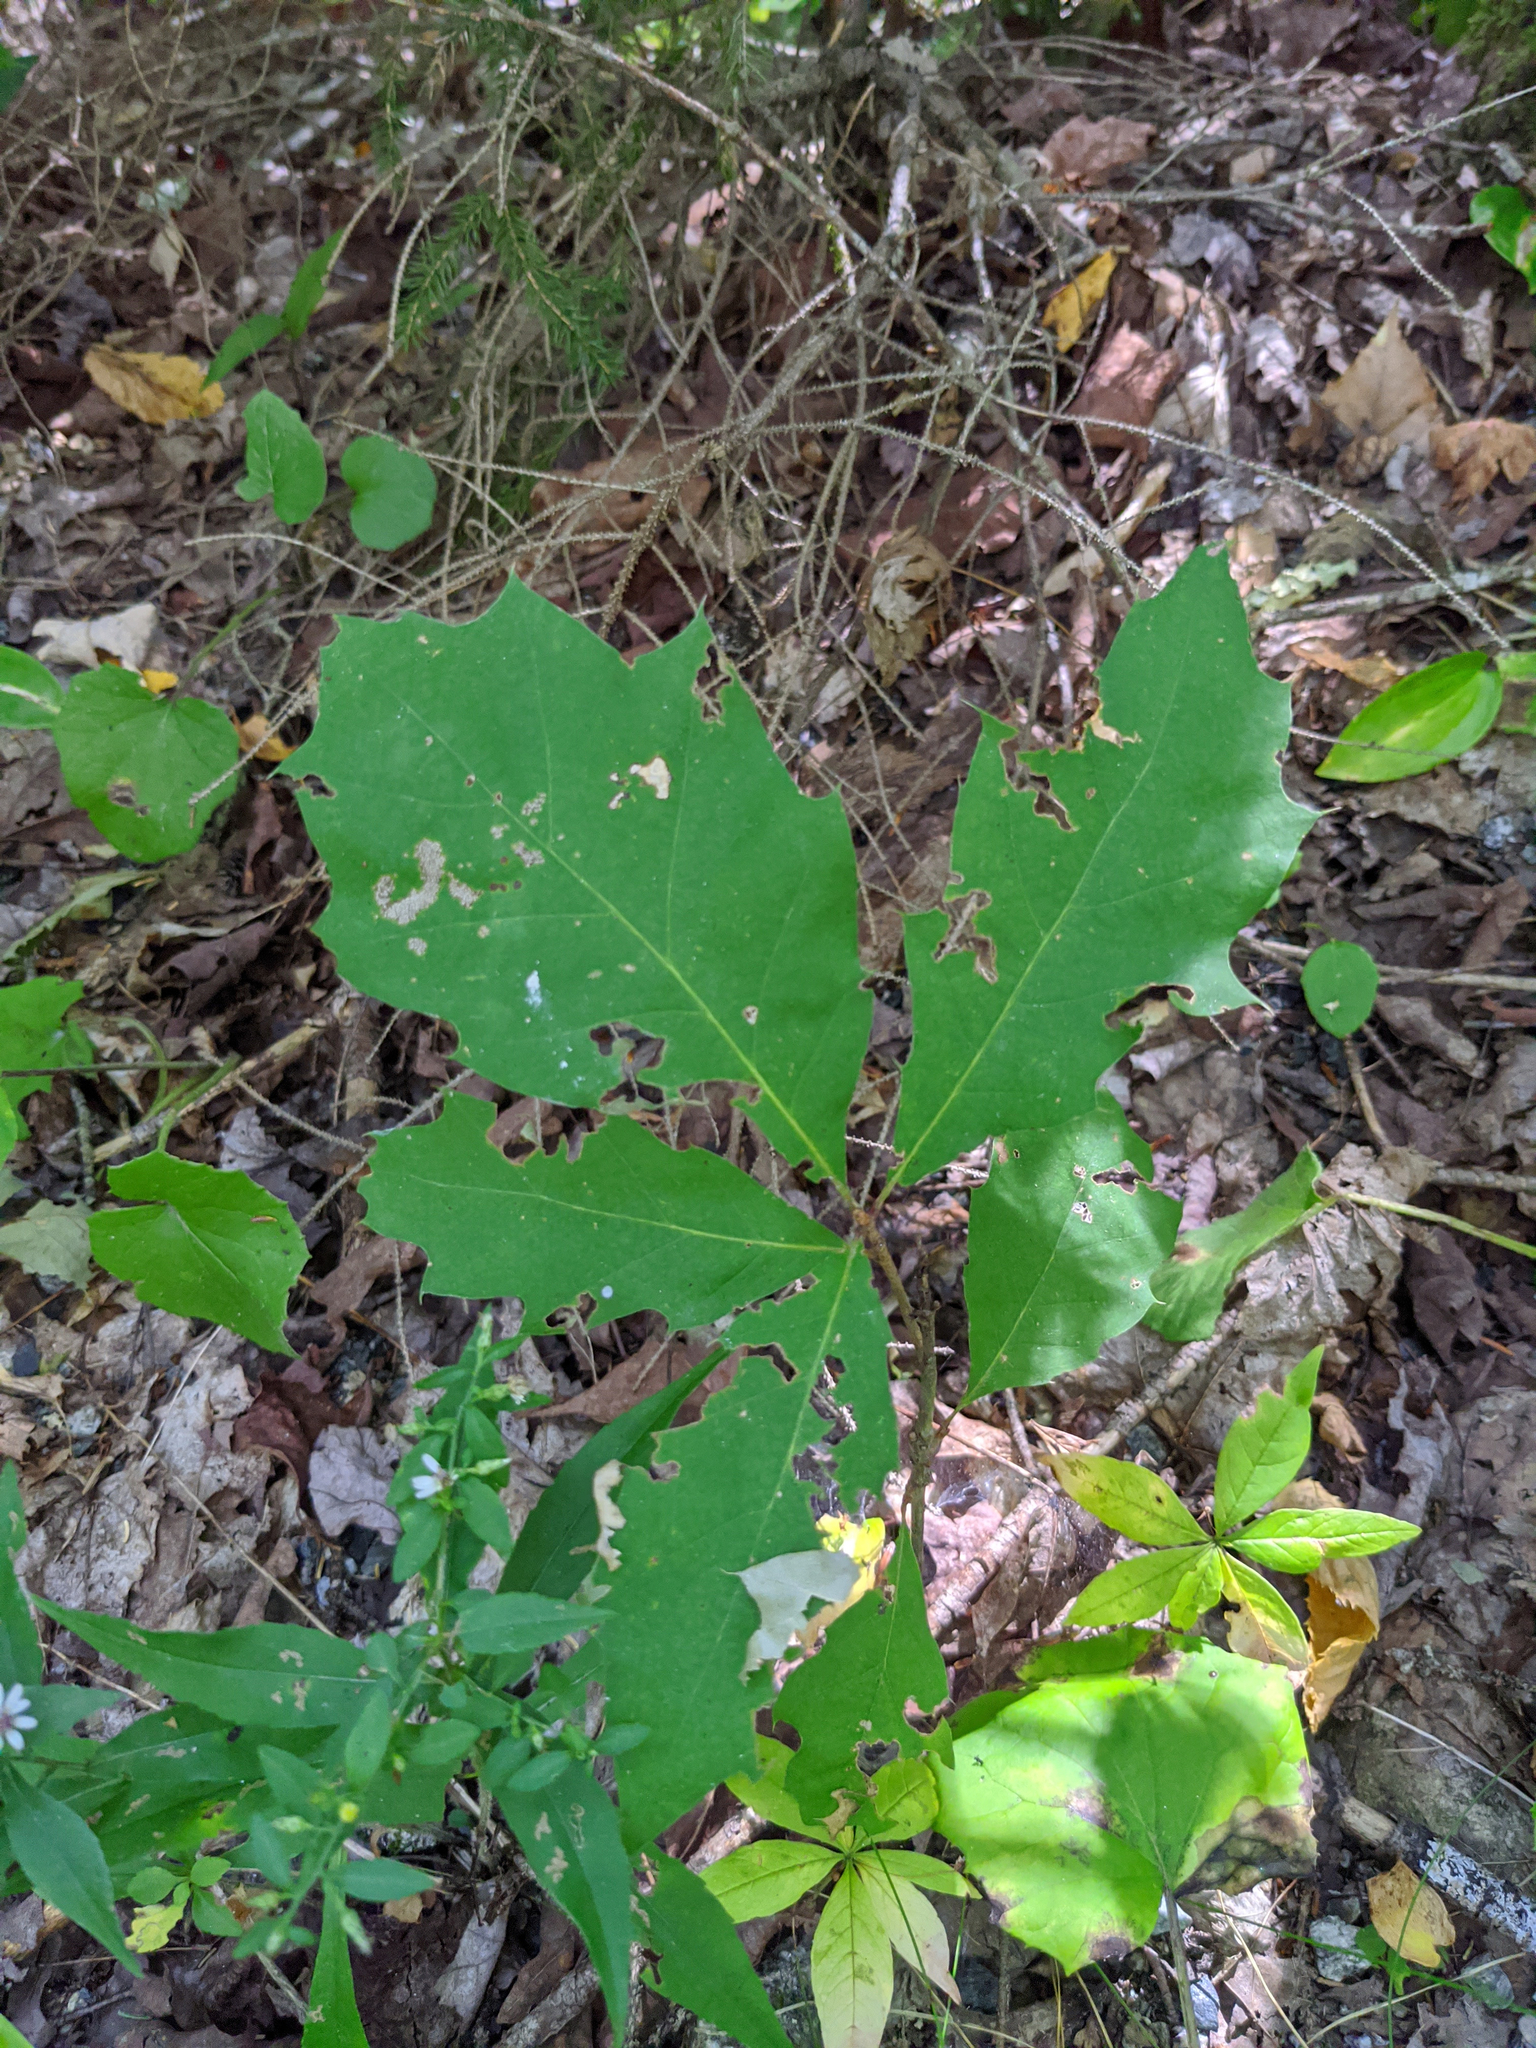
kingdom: Plantae
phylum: Tracheophyta
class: Magnoliopsida
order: Fagales
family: Fagaceae
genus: Quercus
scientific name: Quercus rubra
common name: Red oak
